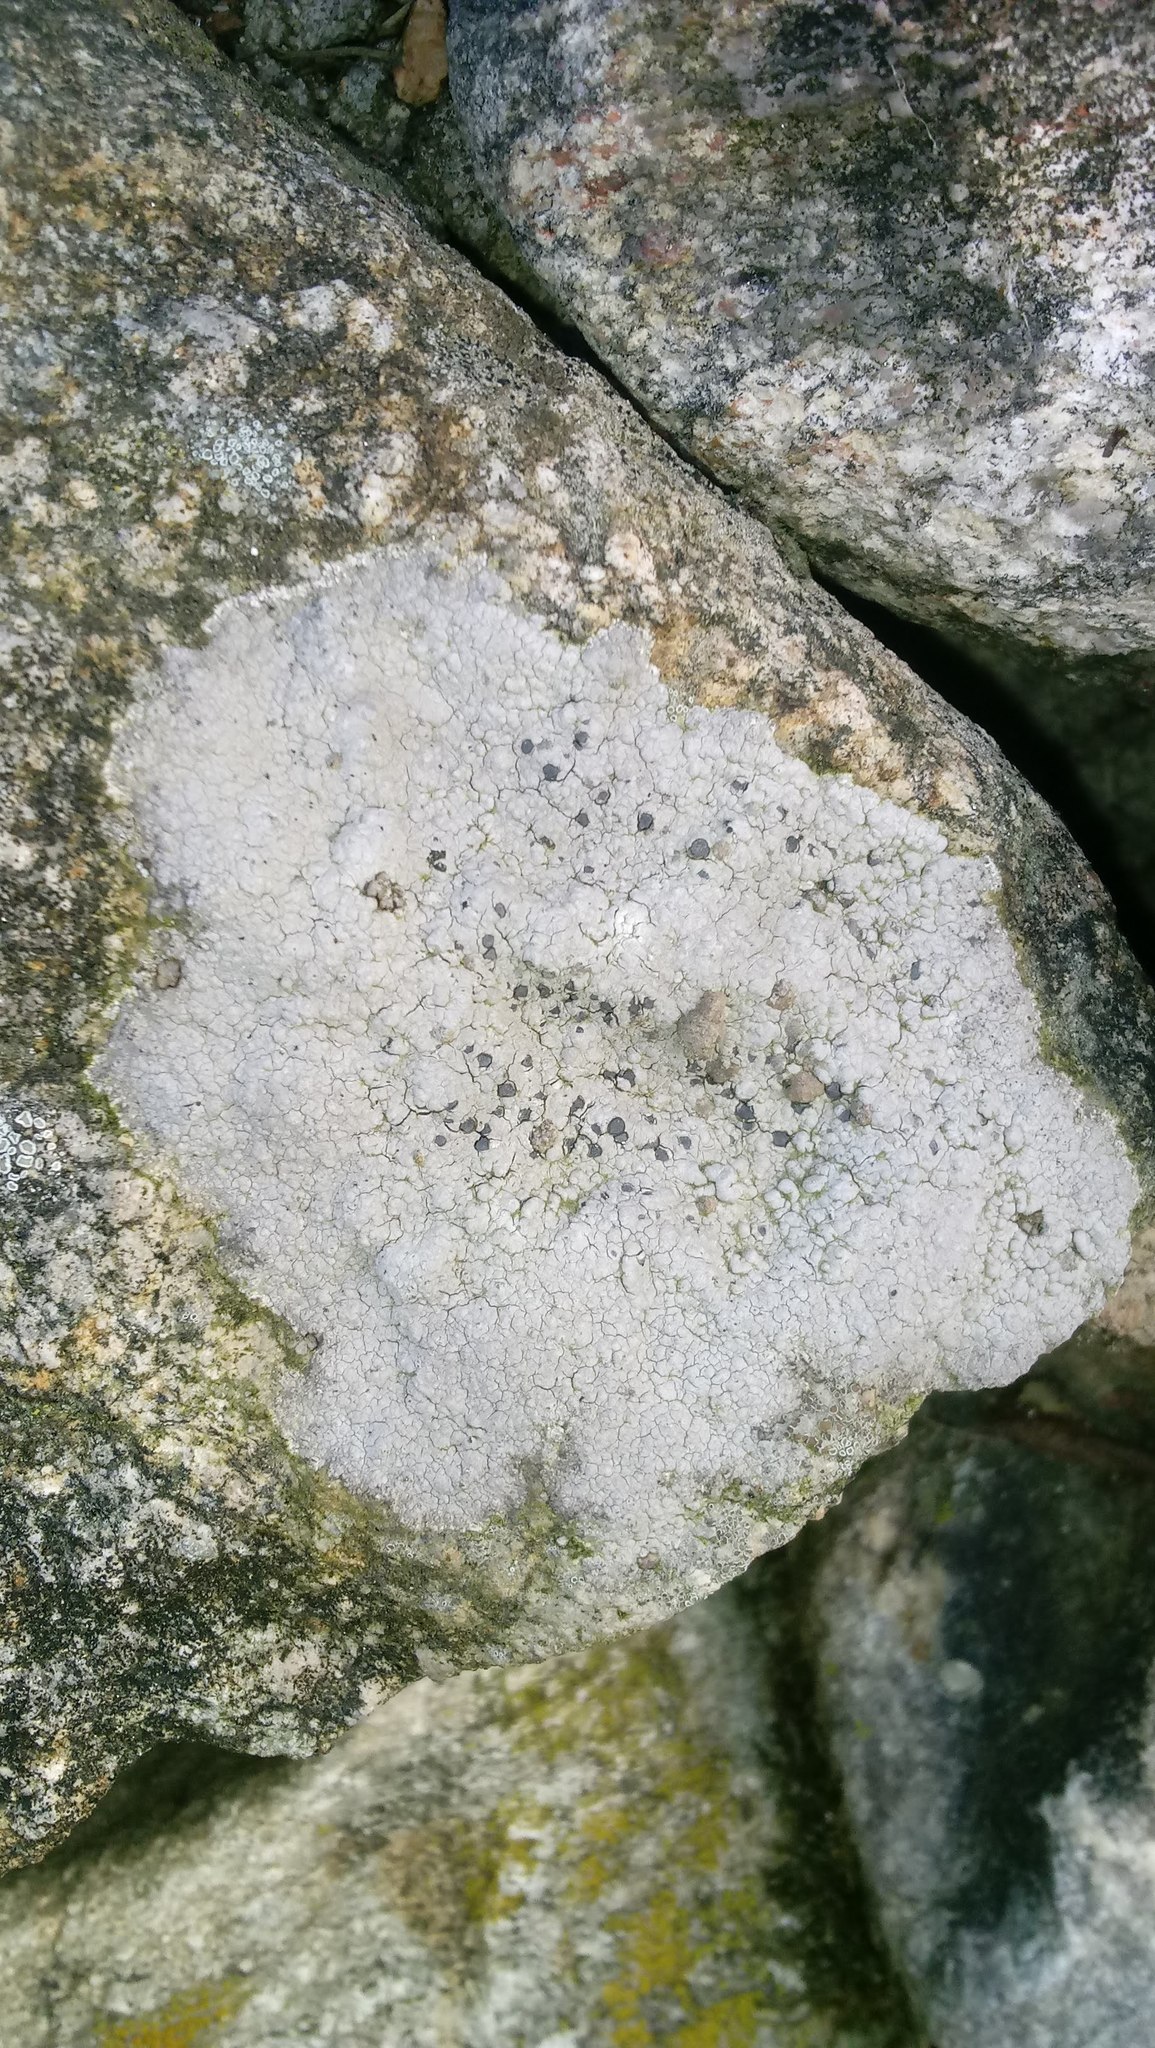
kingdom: Fungi
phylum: Ascomycota
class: Lecanoromycetes
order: Lecideales
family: Lecideaceae
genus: Porpidia
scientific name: Porpidia albocaerulescens
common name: Smokey-eyed boulder lichen
